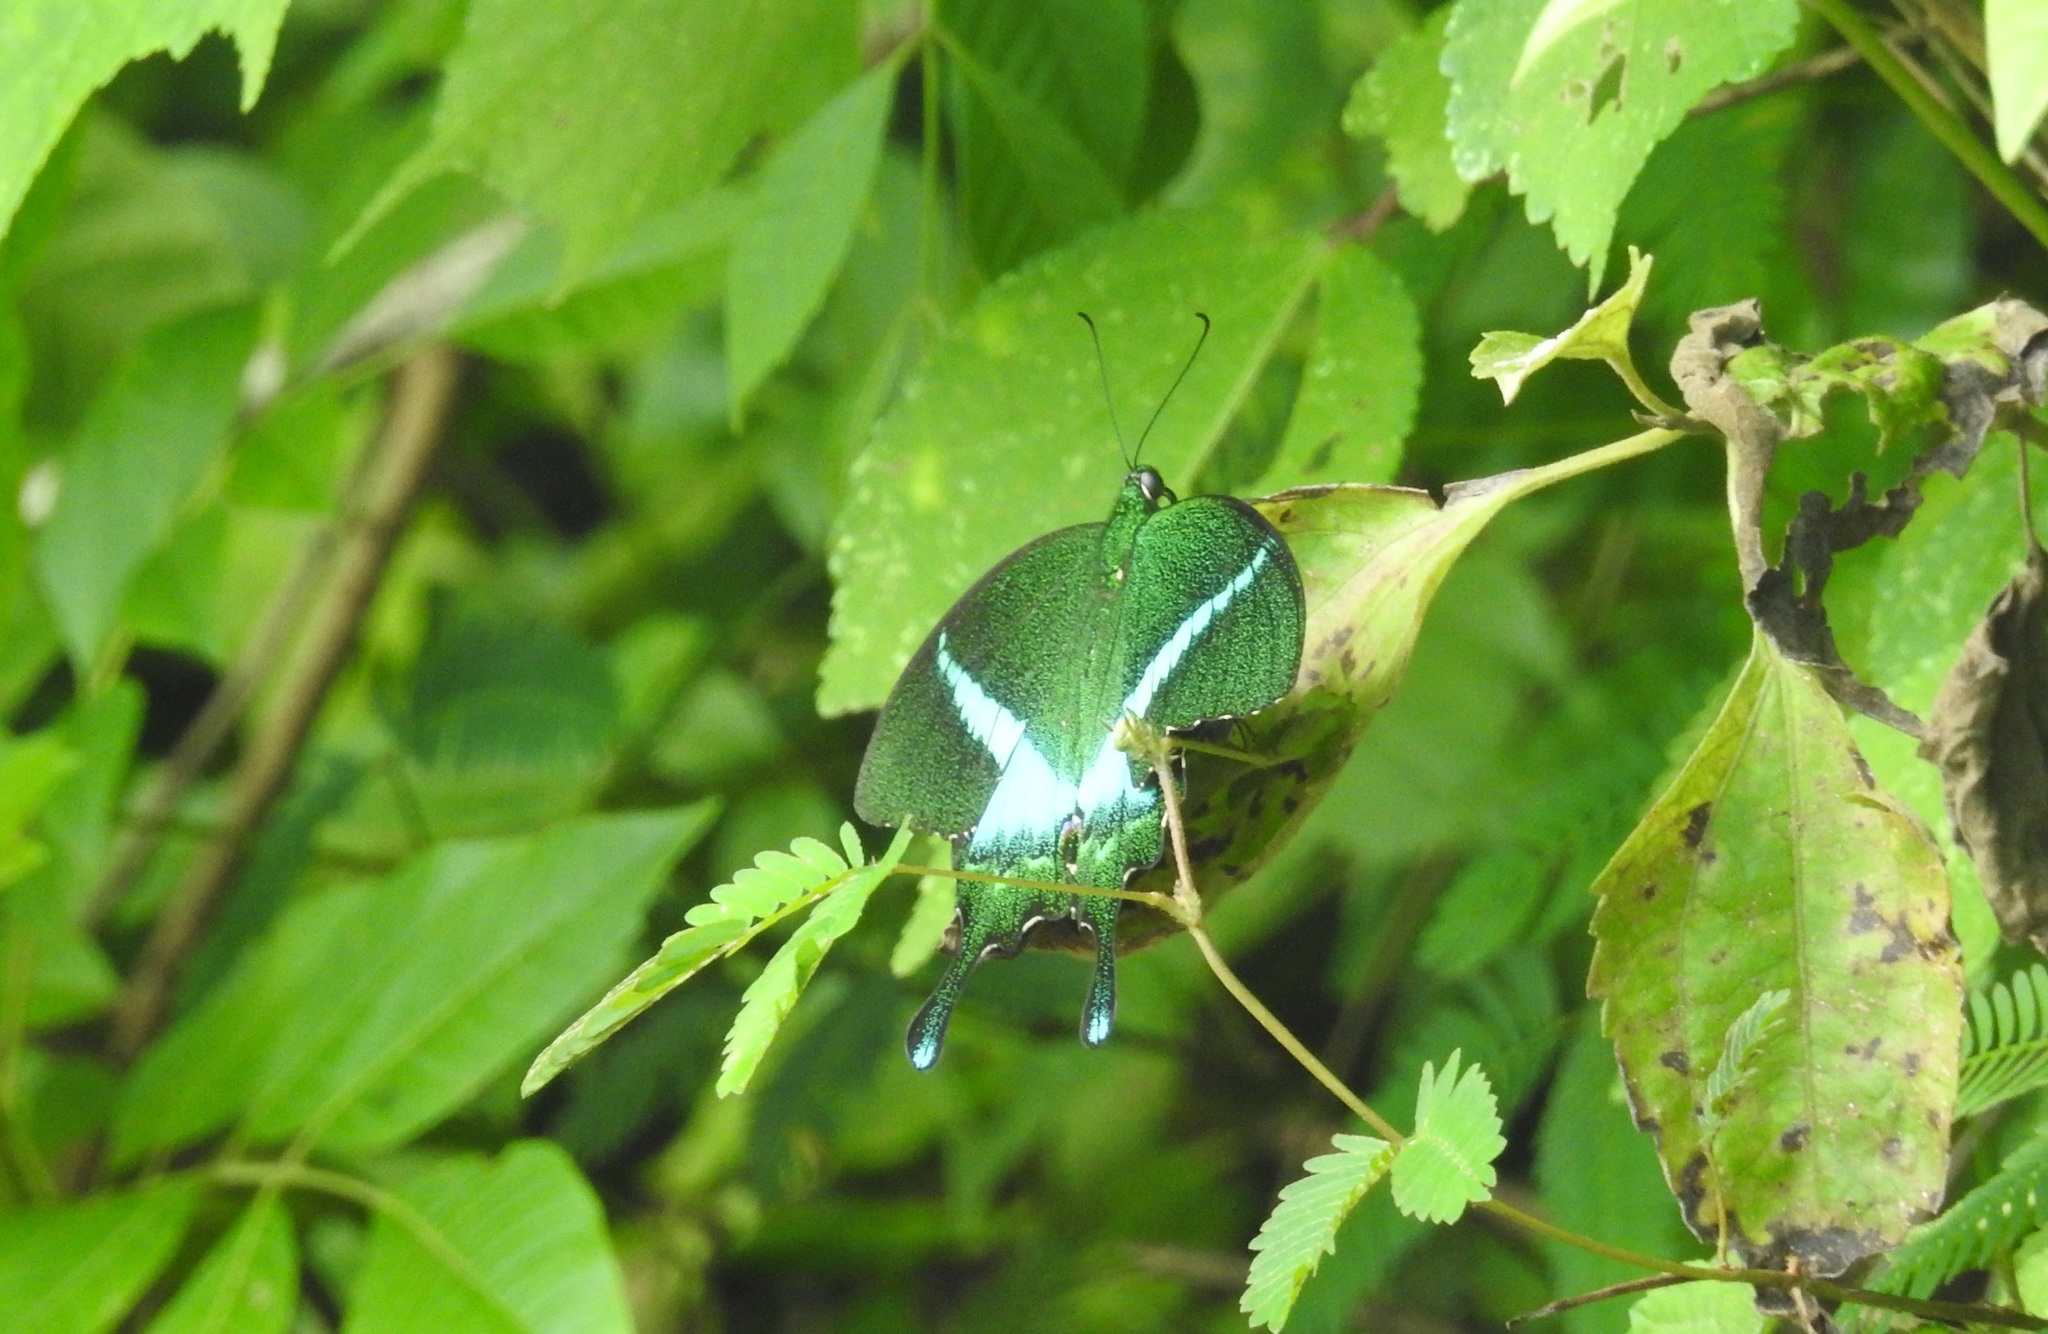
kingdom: Animalia
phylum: Arthropoda
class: Insecta
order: Lepidoptera
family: Papilionidae
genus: Papilio
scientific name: Papilio crino
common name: Common banded peacock
